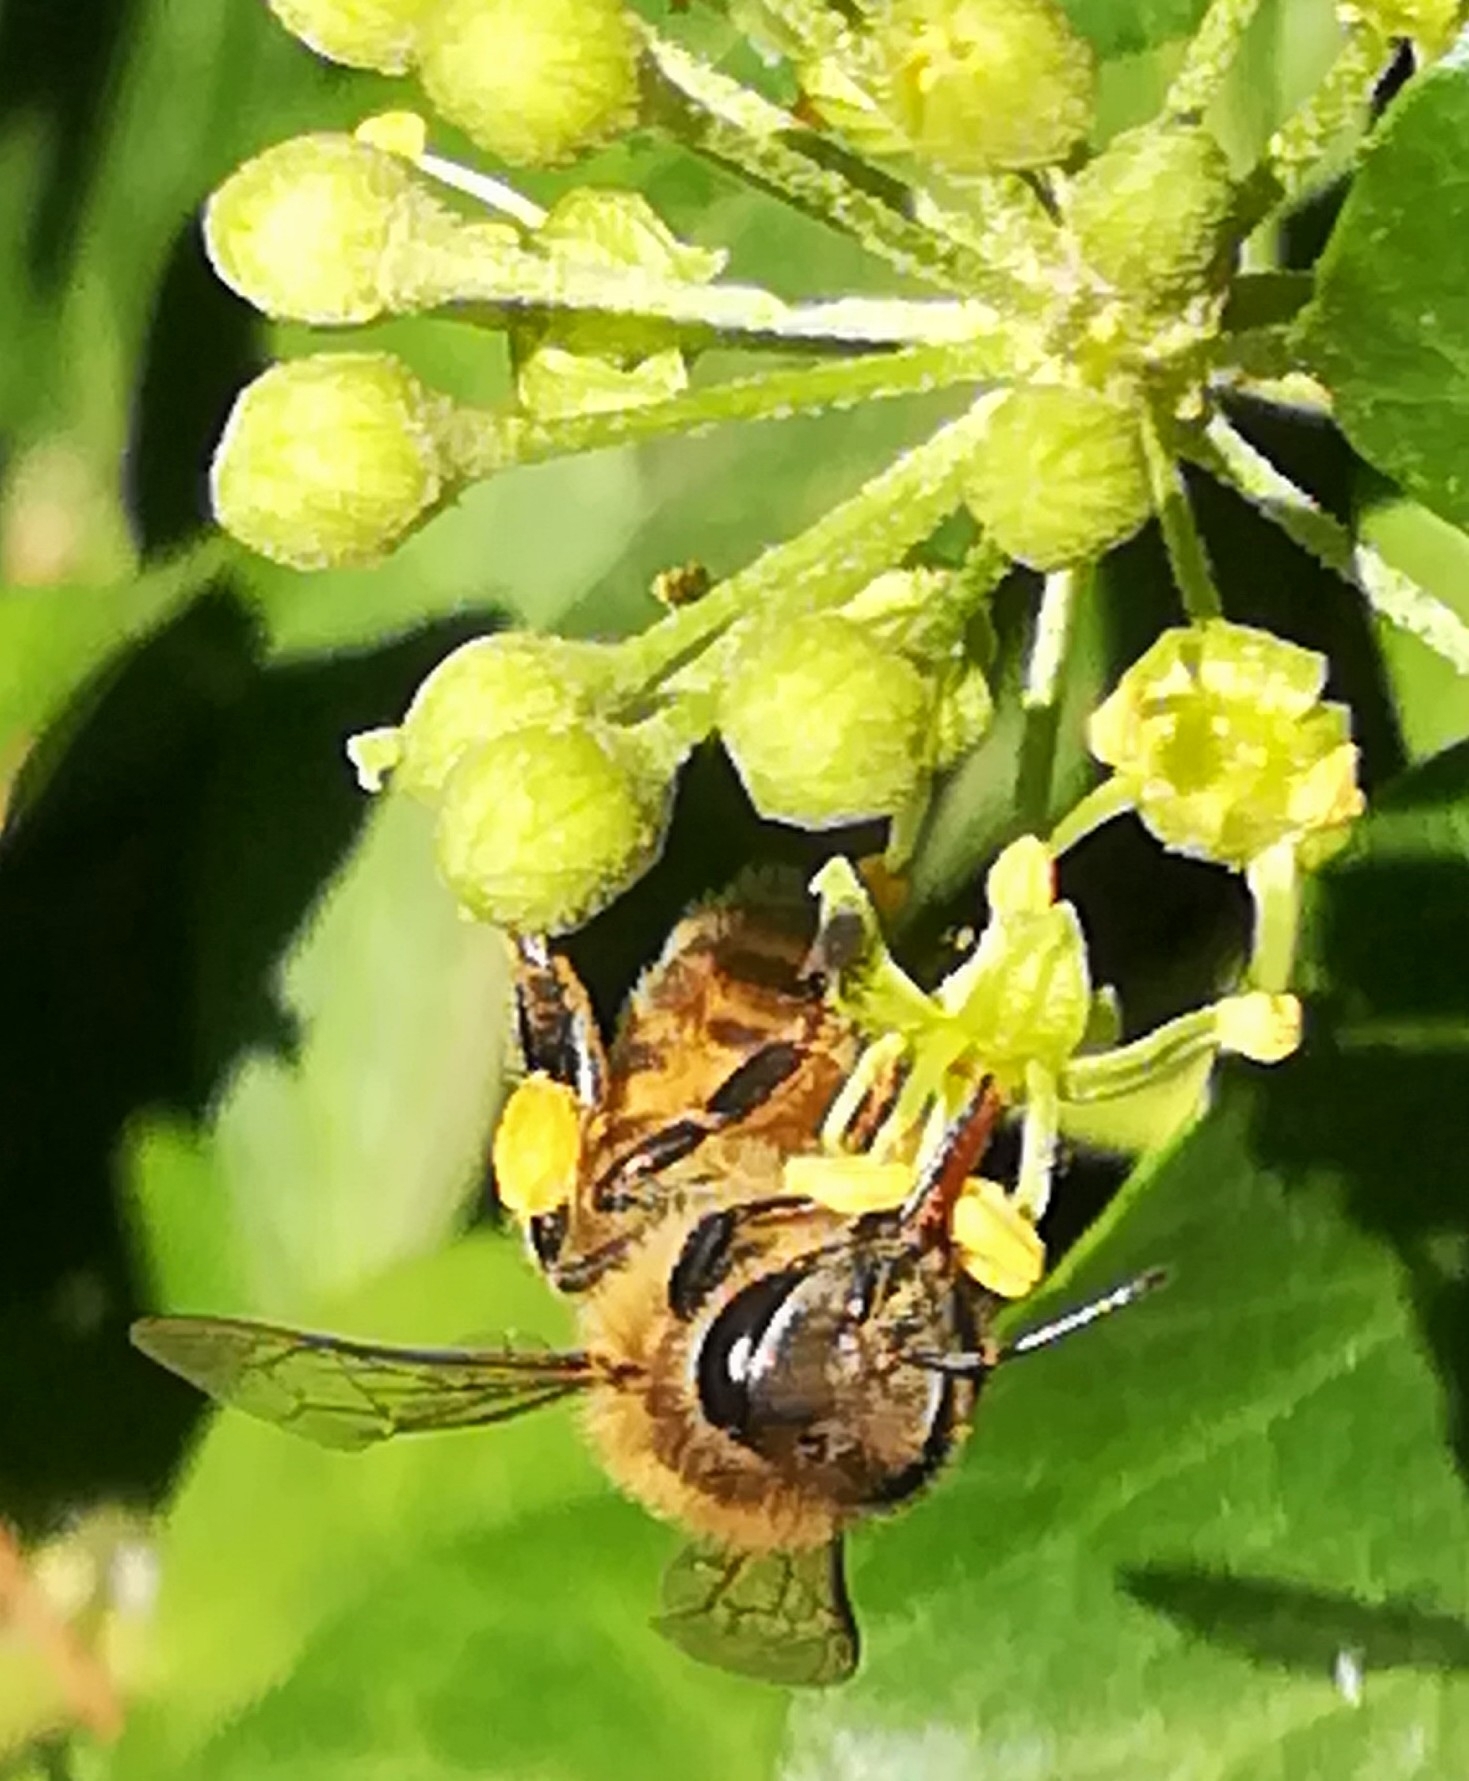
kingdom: Animalia
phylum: Arthropoda
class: Insecta
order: Hymenoptera
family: Apidae
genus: Apis
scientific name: Apis mellifera
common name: Honey bee
